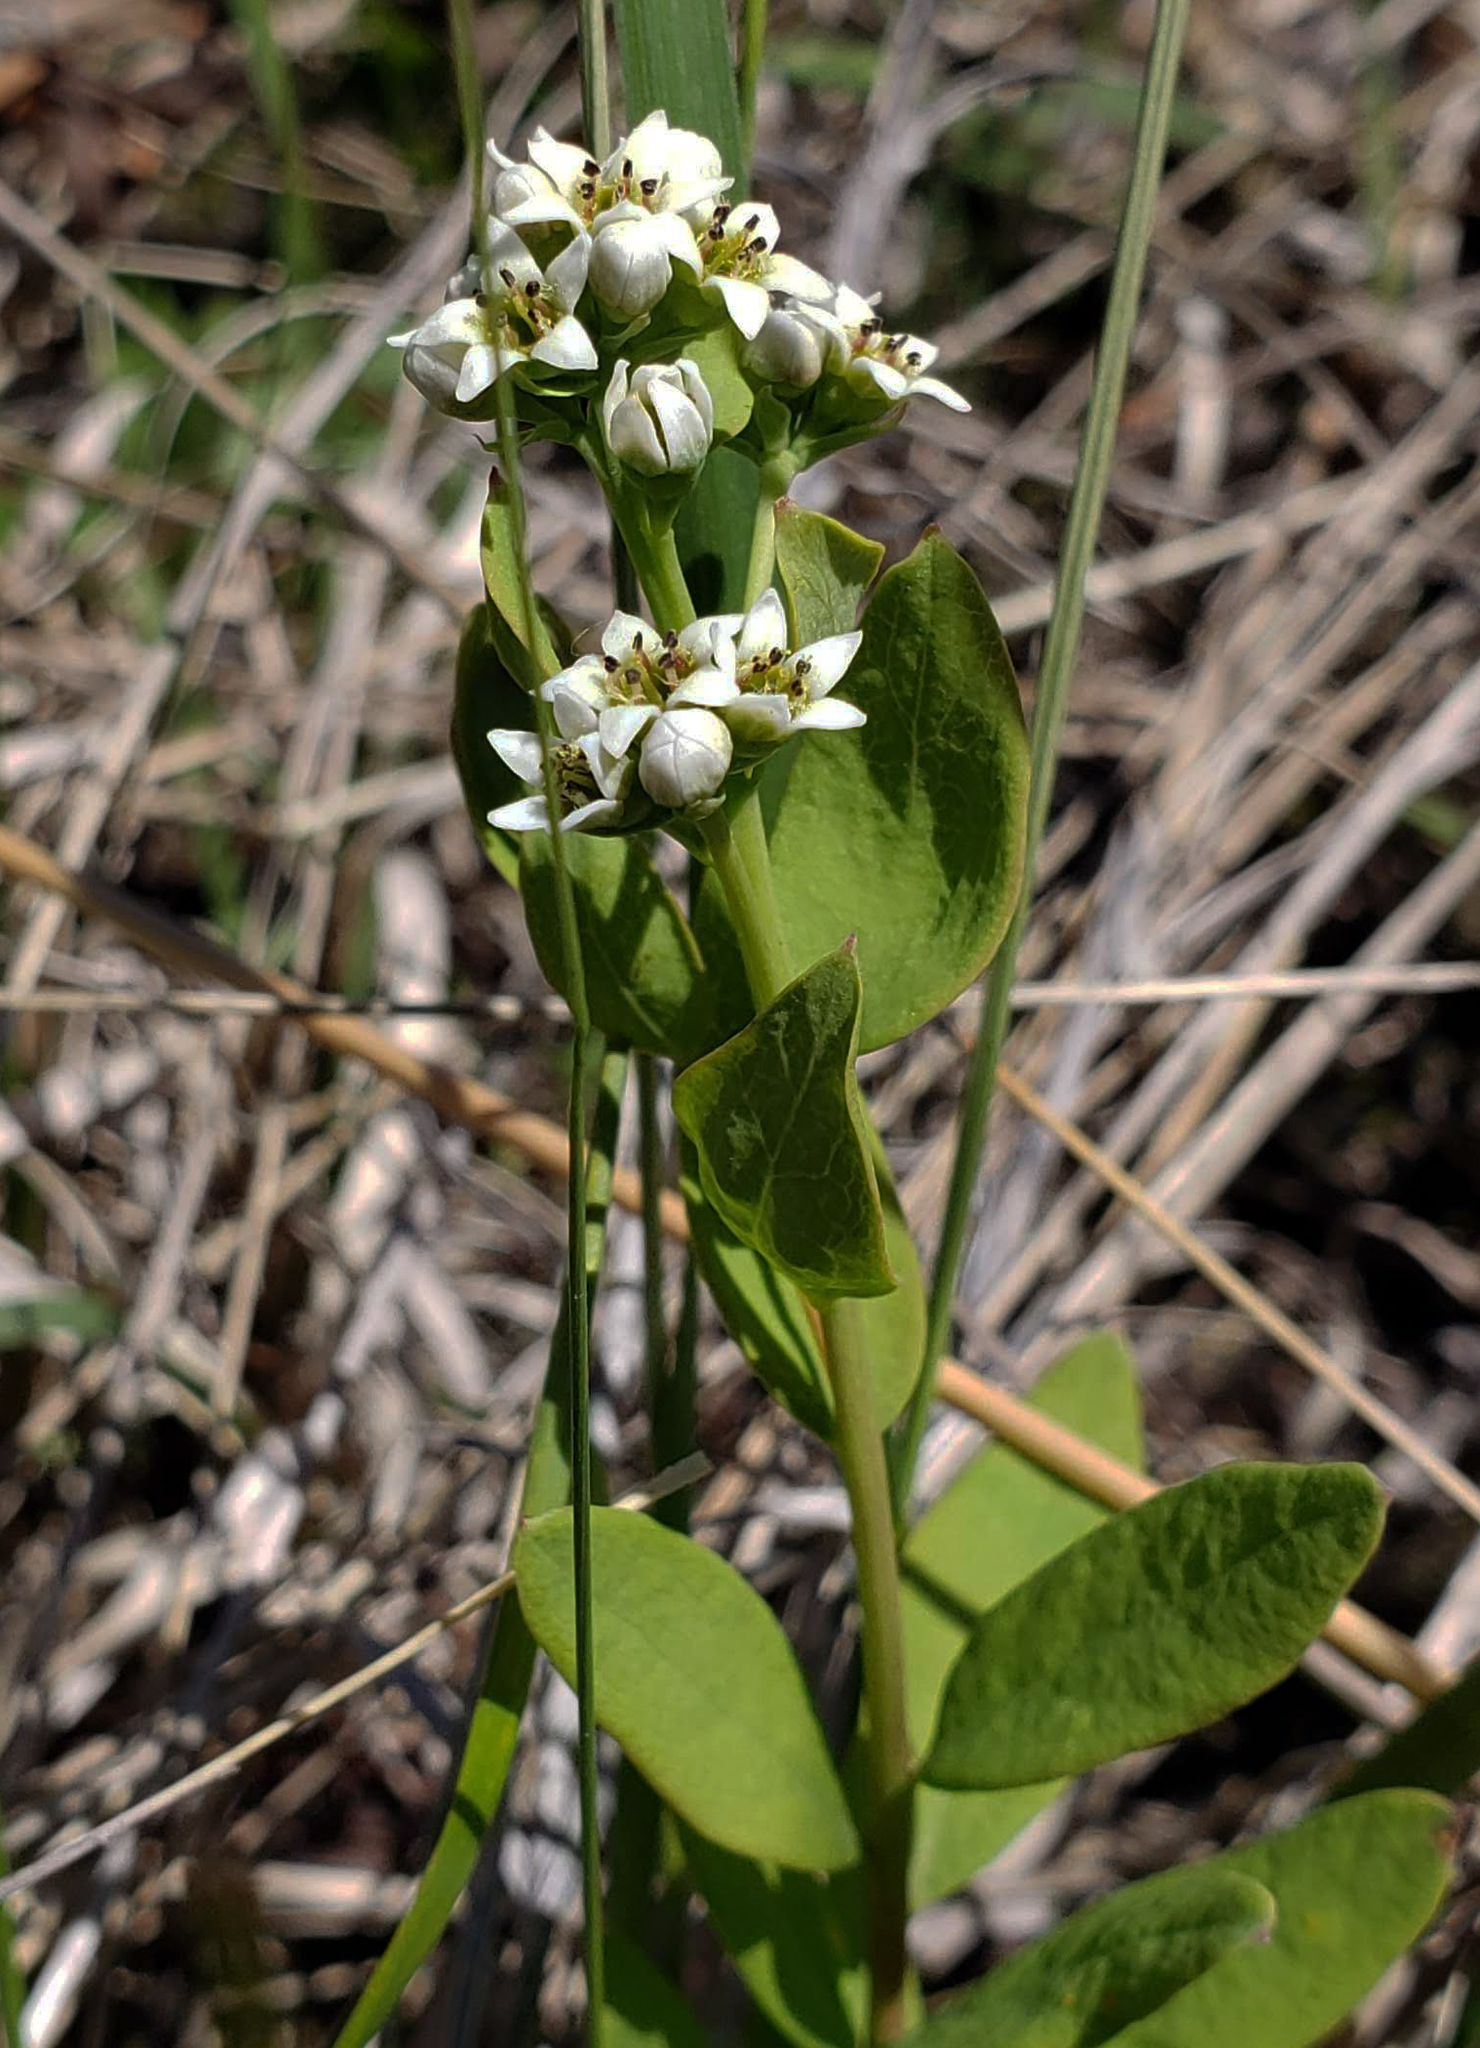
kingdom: Plantae
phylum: Tracheophyta
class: Magnoliopsida
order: Santalales
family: Comandraceae
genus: Comandra
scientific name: Comandra umbellata
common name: Bastard toadflax
